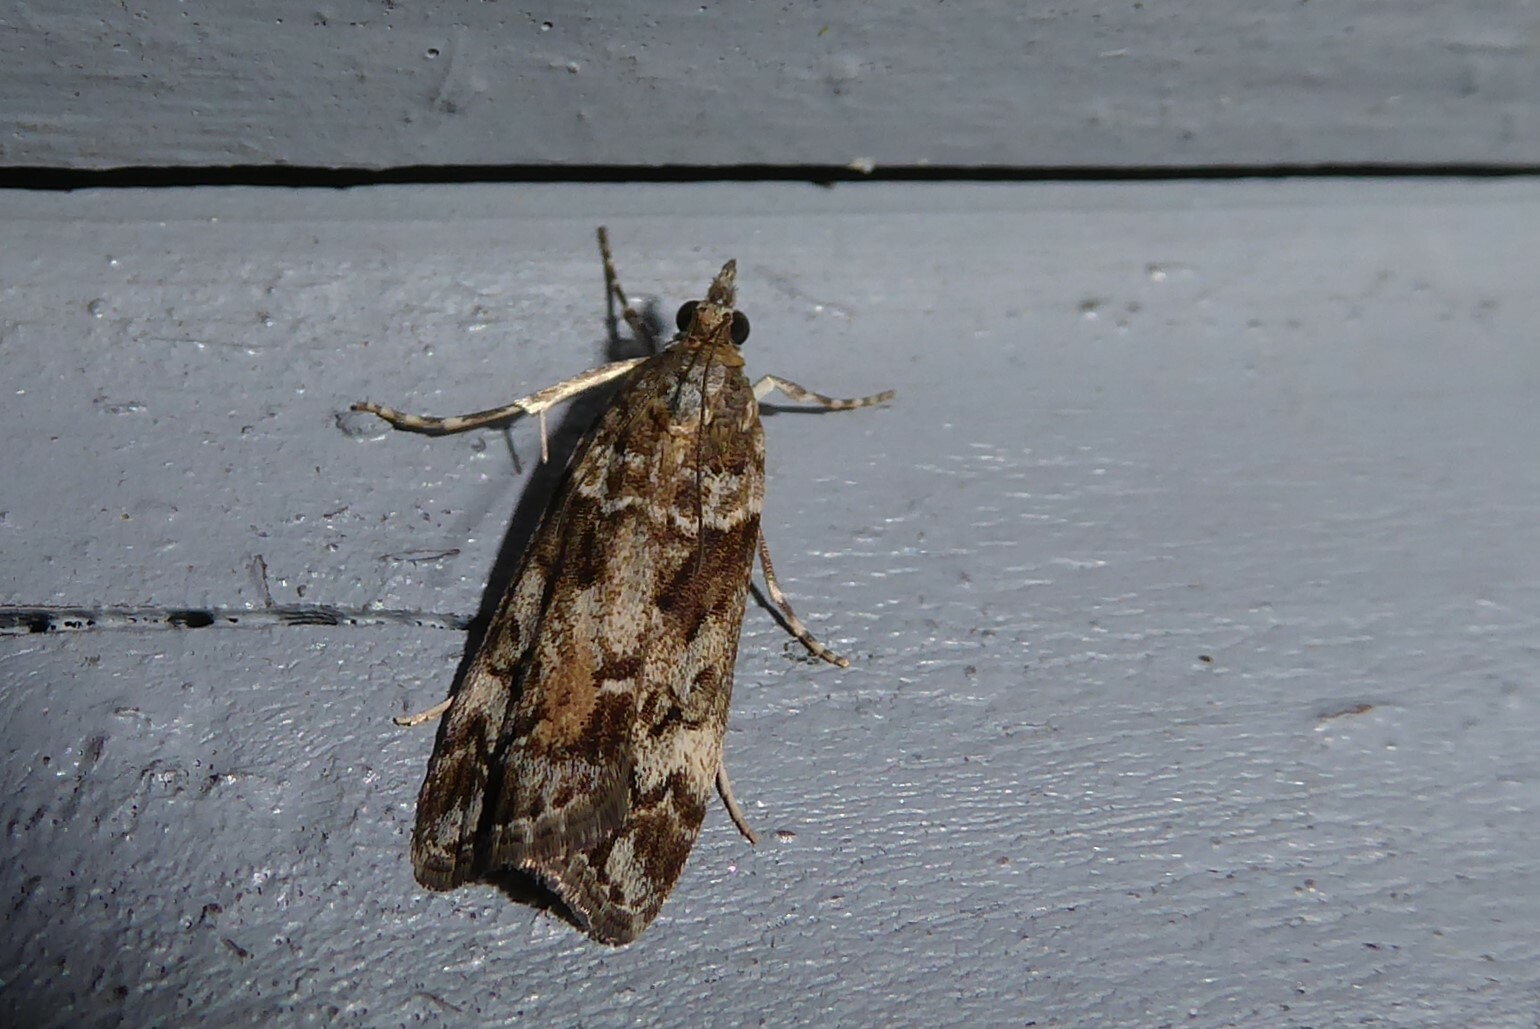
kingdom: Animalia
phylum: Arthropoda
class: Insecta
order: Lepidoptera
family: Crambidae
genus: Eudonia
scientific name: Eudonia submarginalis
